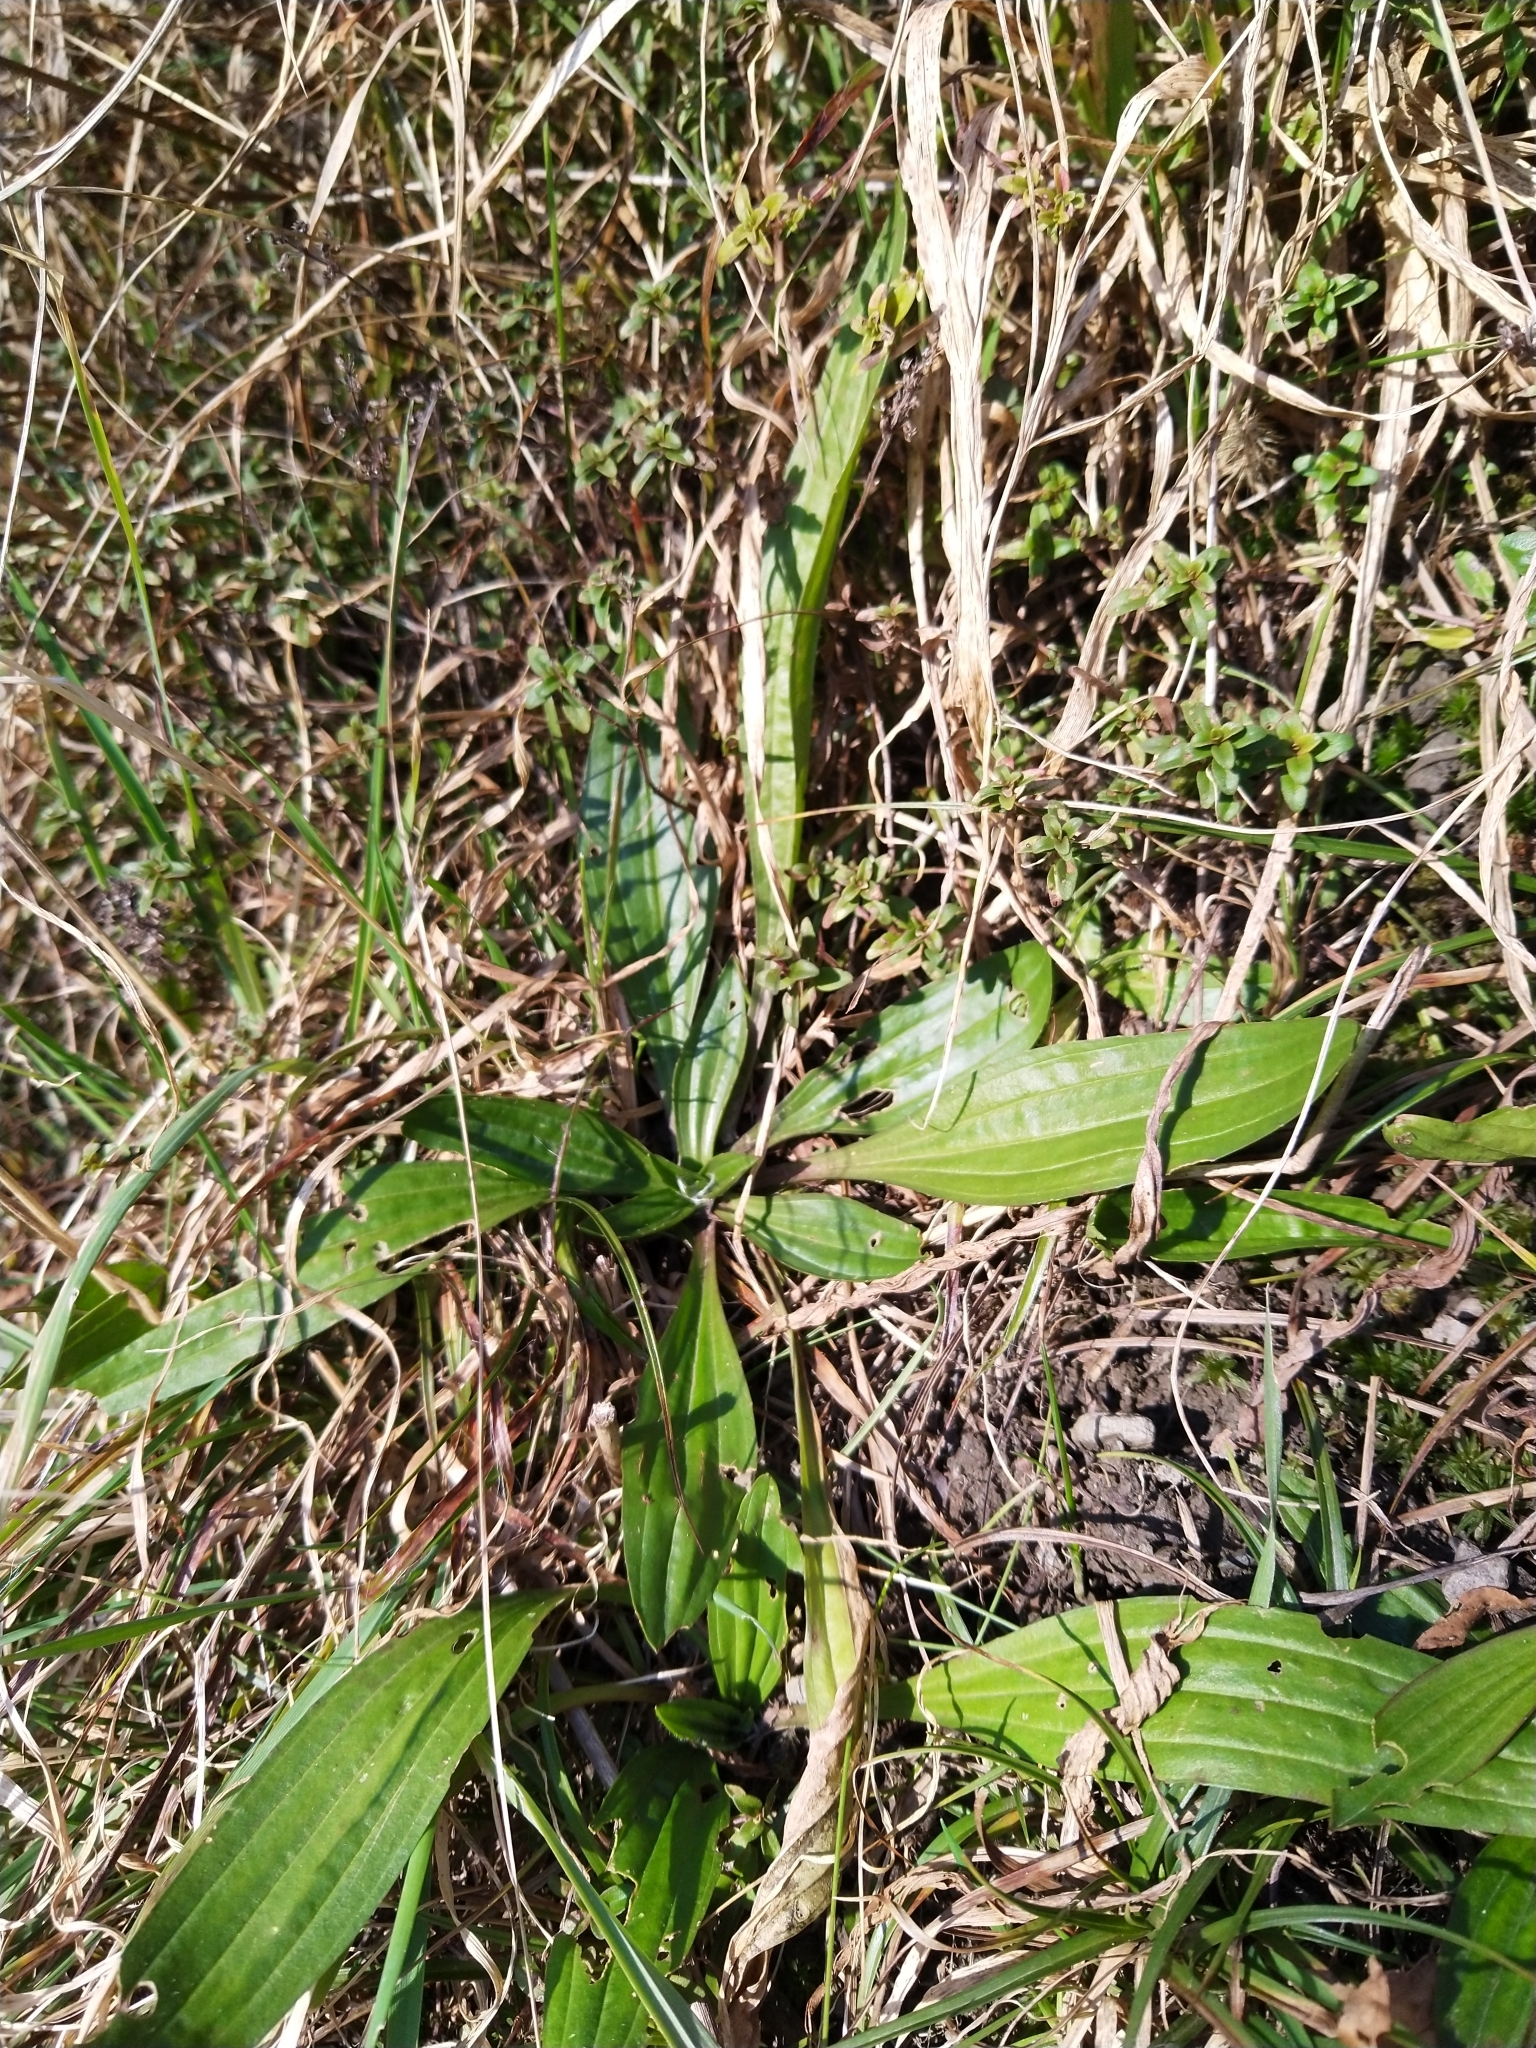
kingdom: Plantae
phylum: Tracheophyta
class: Magnoliopsida
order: Lamiales
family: Plantaginaceae
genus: Plantago
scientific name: Plantago lanceolata
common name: Ribwort plantain
